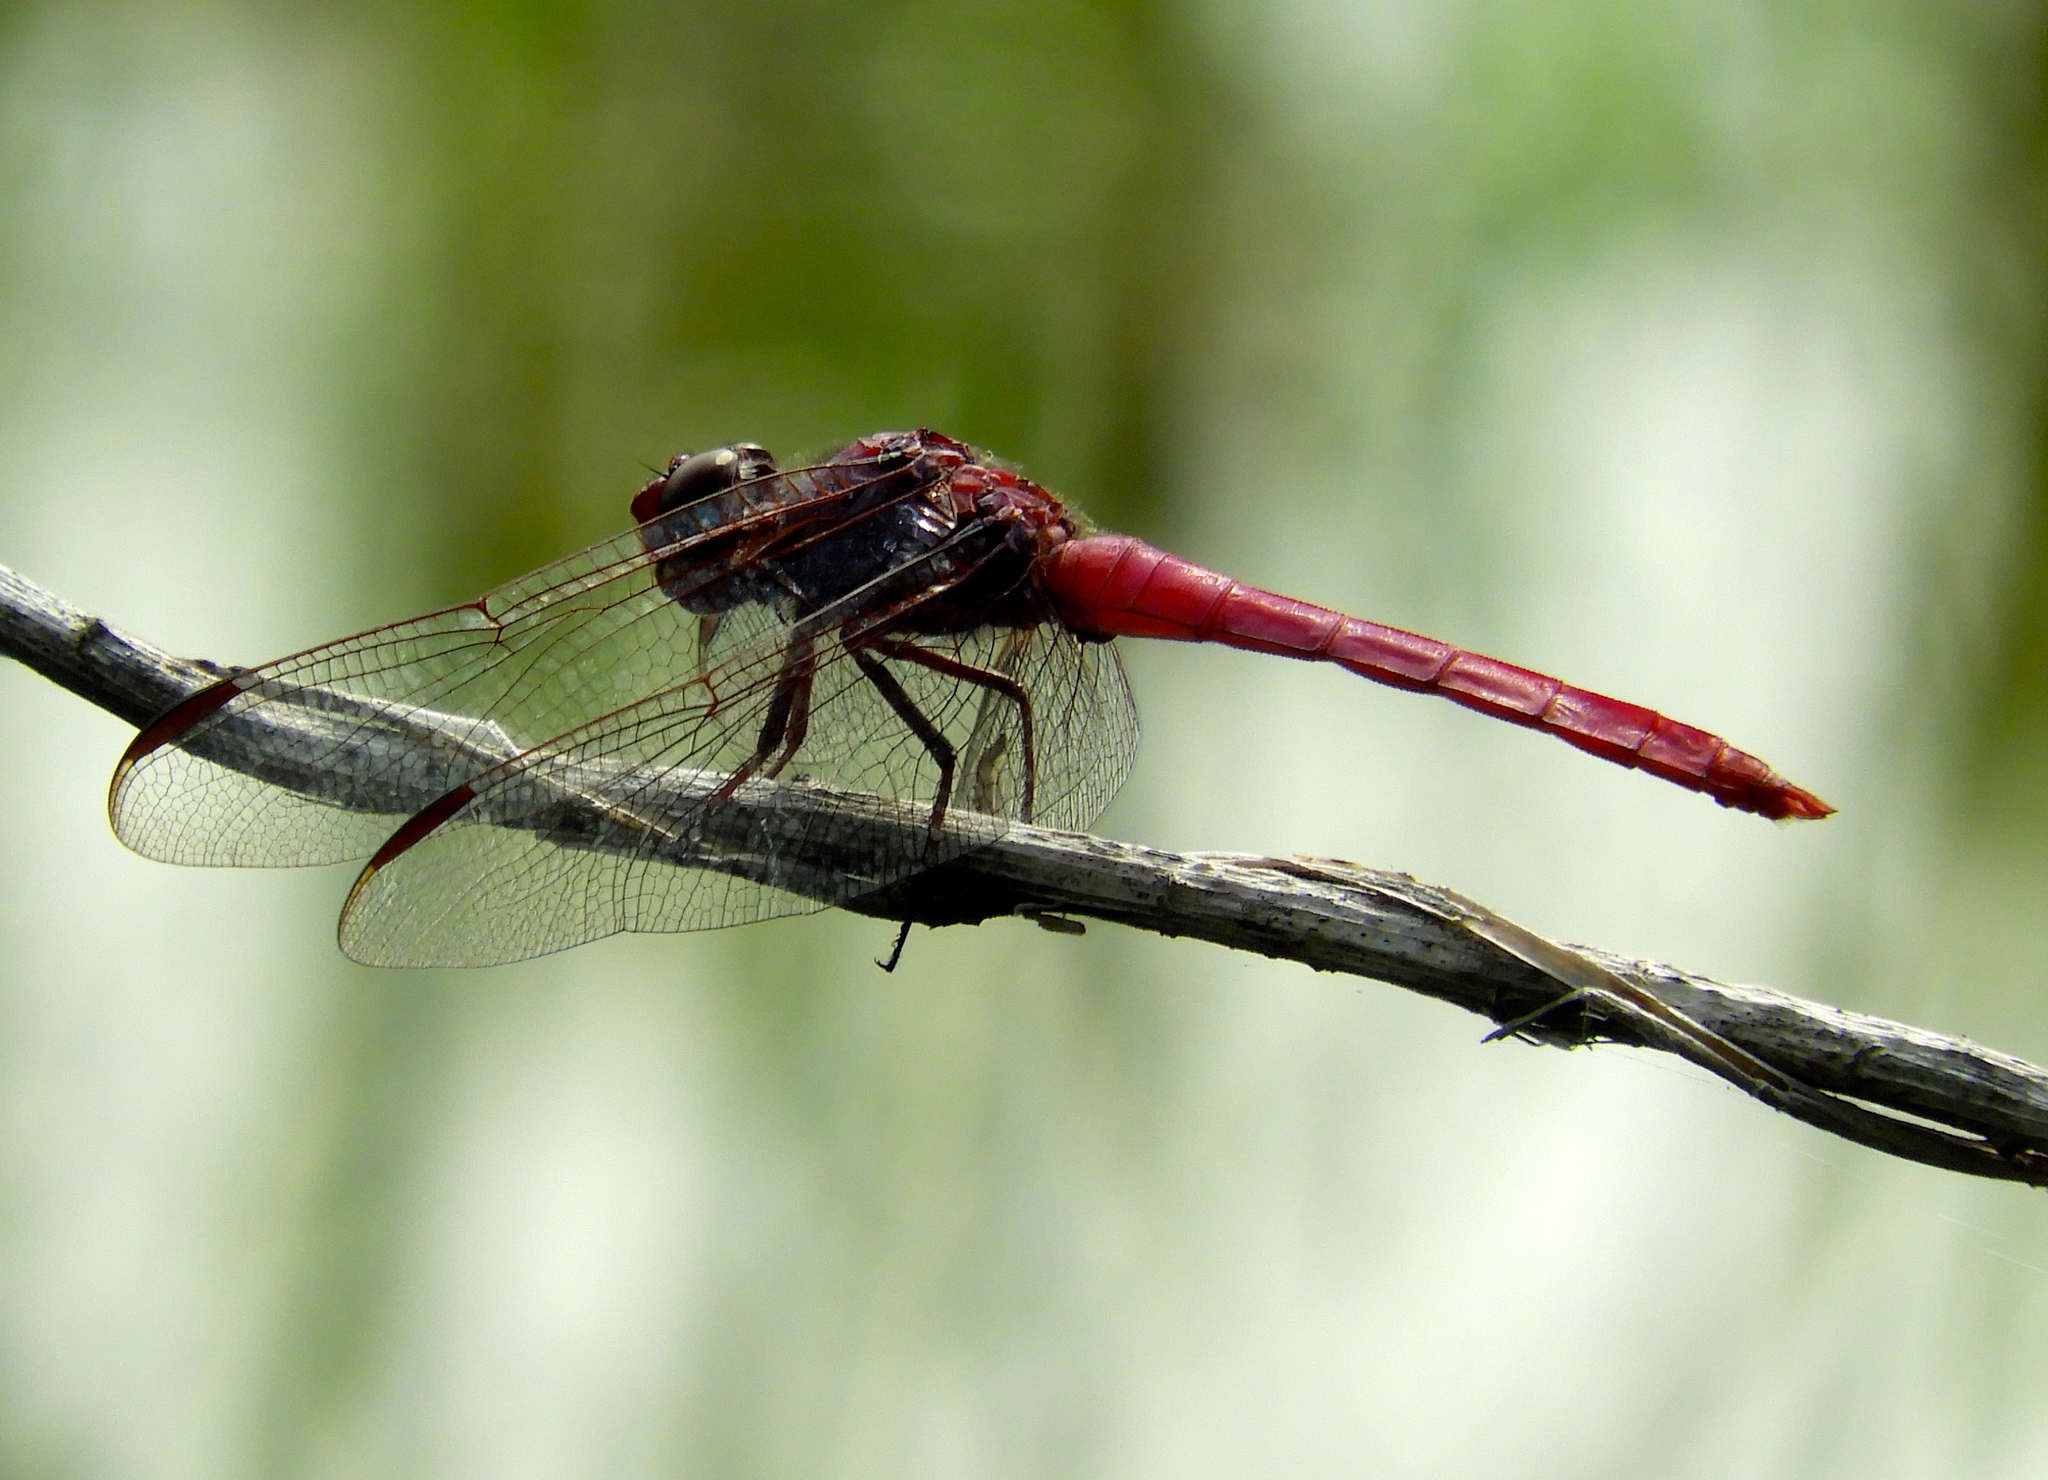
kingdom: Animalia
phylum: Arthropoda
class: Insecta
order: Odonata
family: Libellulidae
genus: Orthemis
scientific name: Orthemis ferruginea
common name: Roseate skimmer
